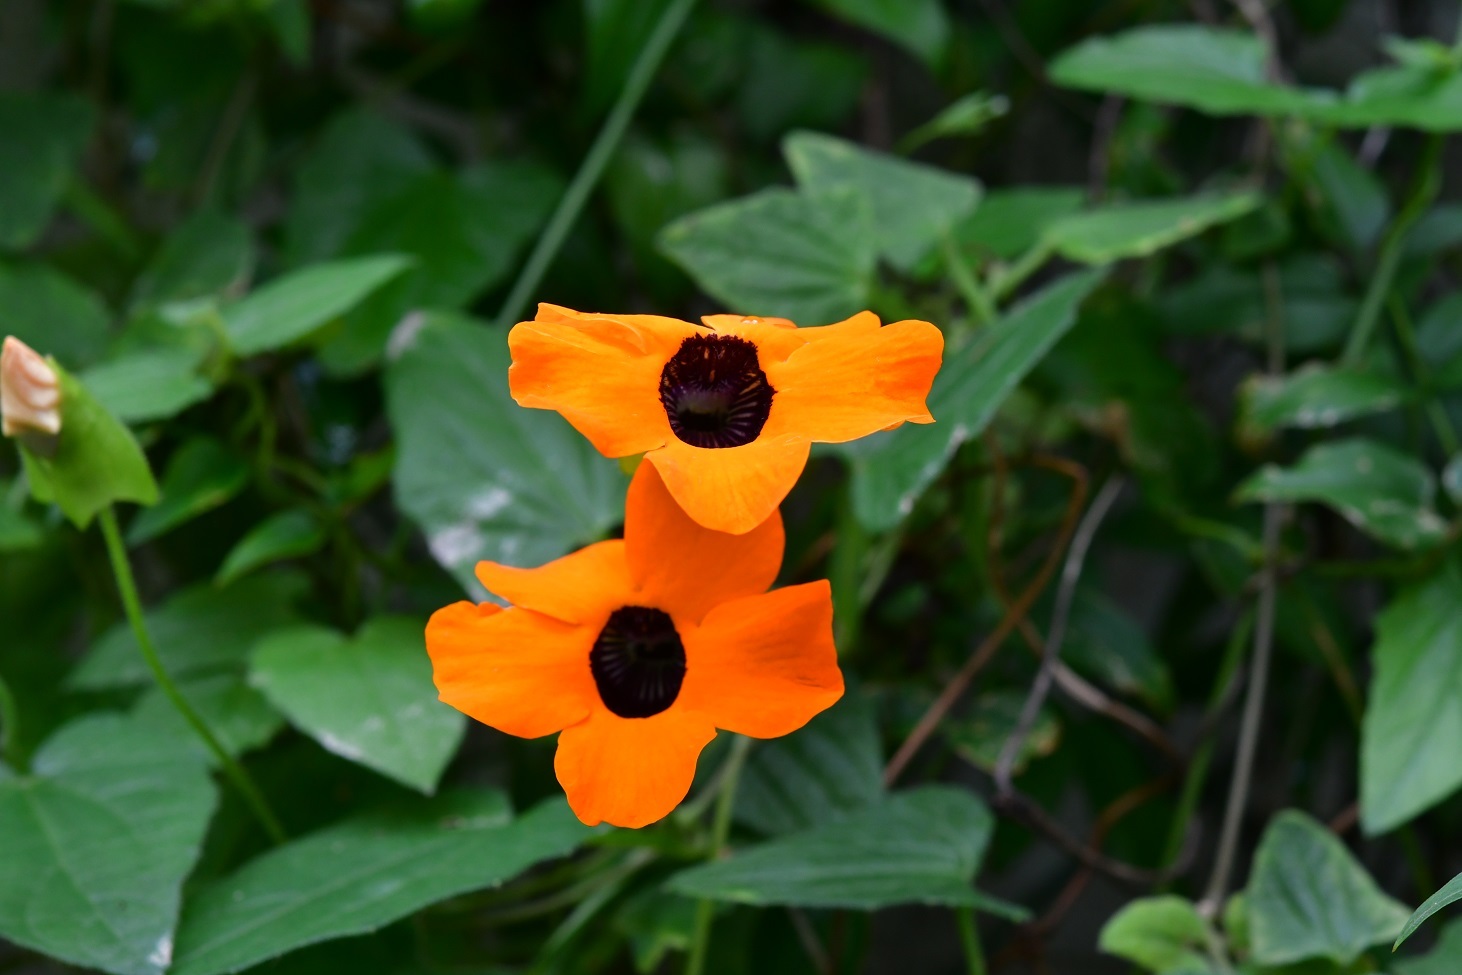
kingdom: Plantae
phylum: Tracheophyta
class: Magnoliopsida
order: Lamiales
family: Acanthaceae
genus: Thunbergia
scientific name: Thunbergia alata
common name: Blackeyed susan vine
